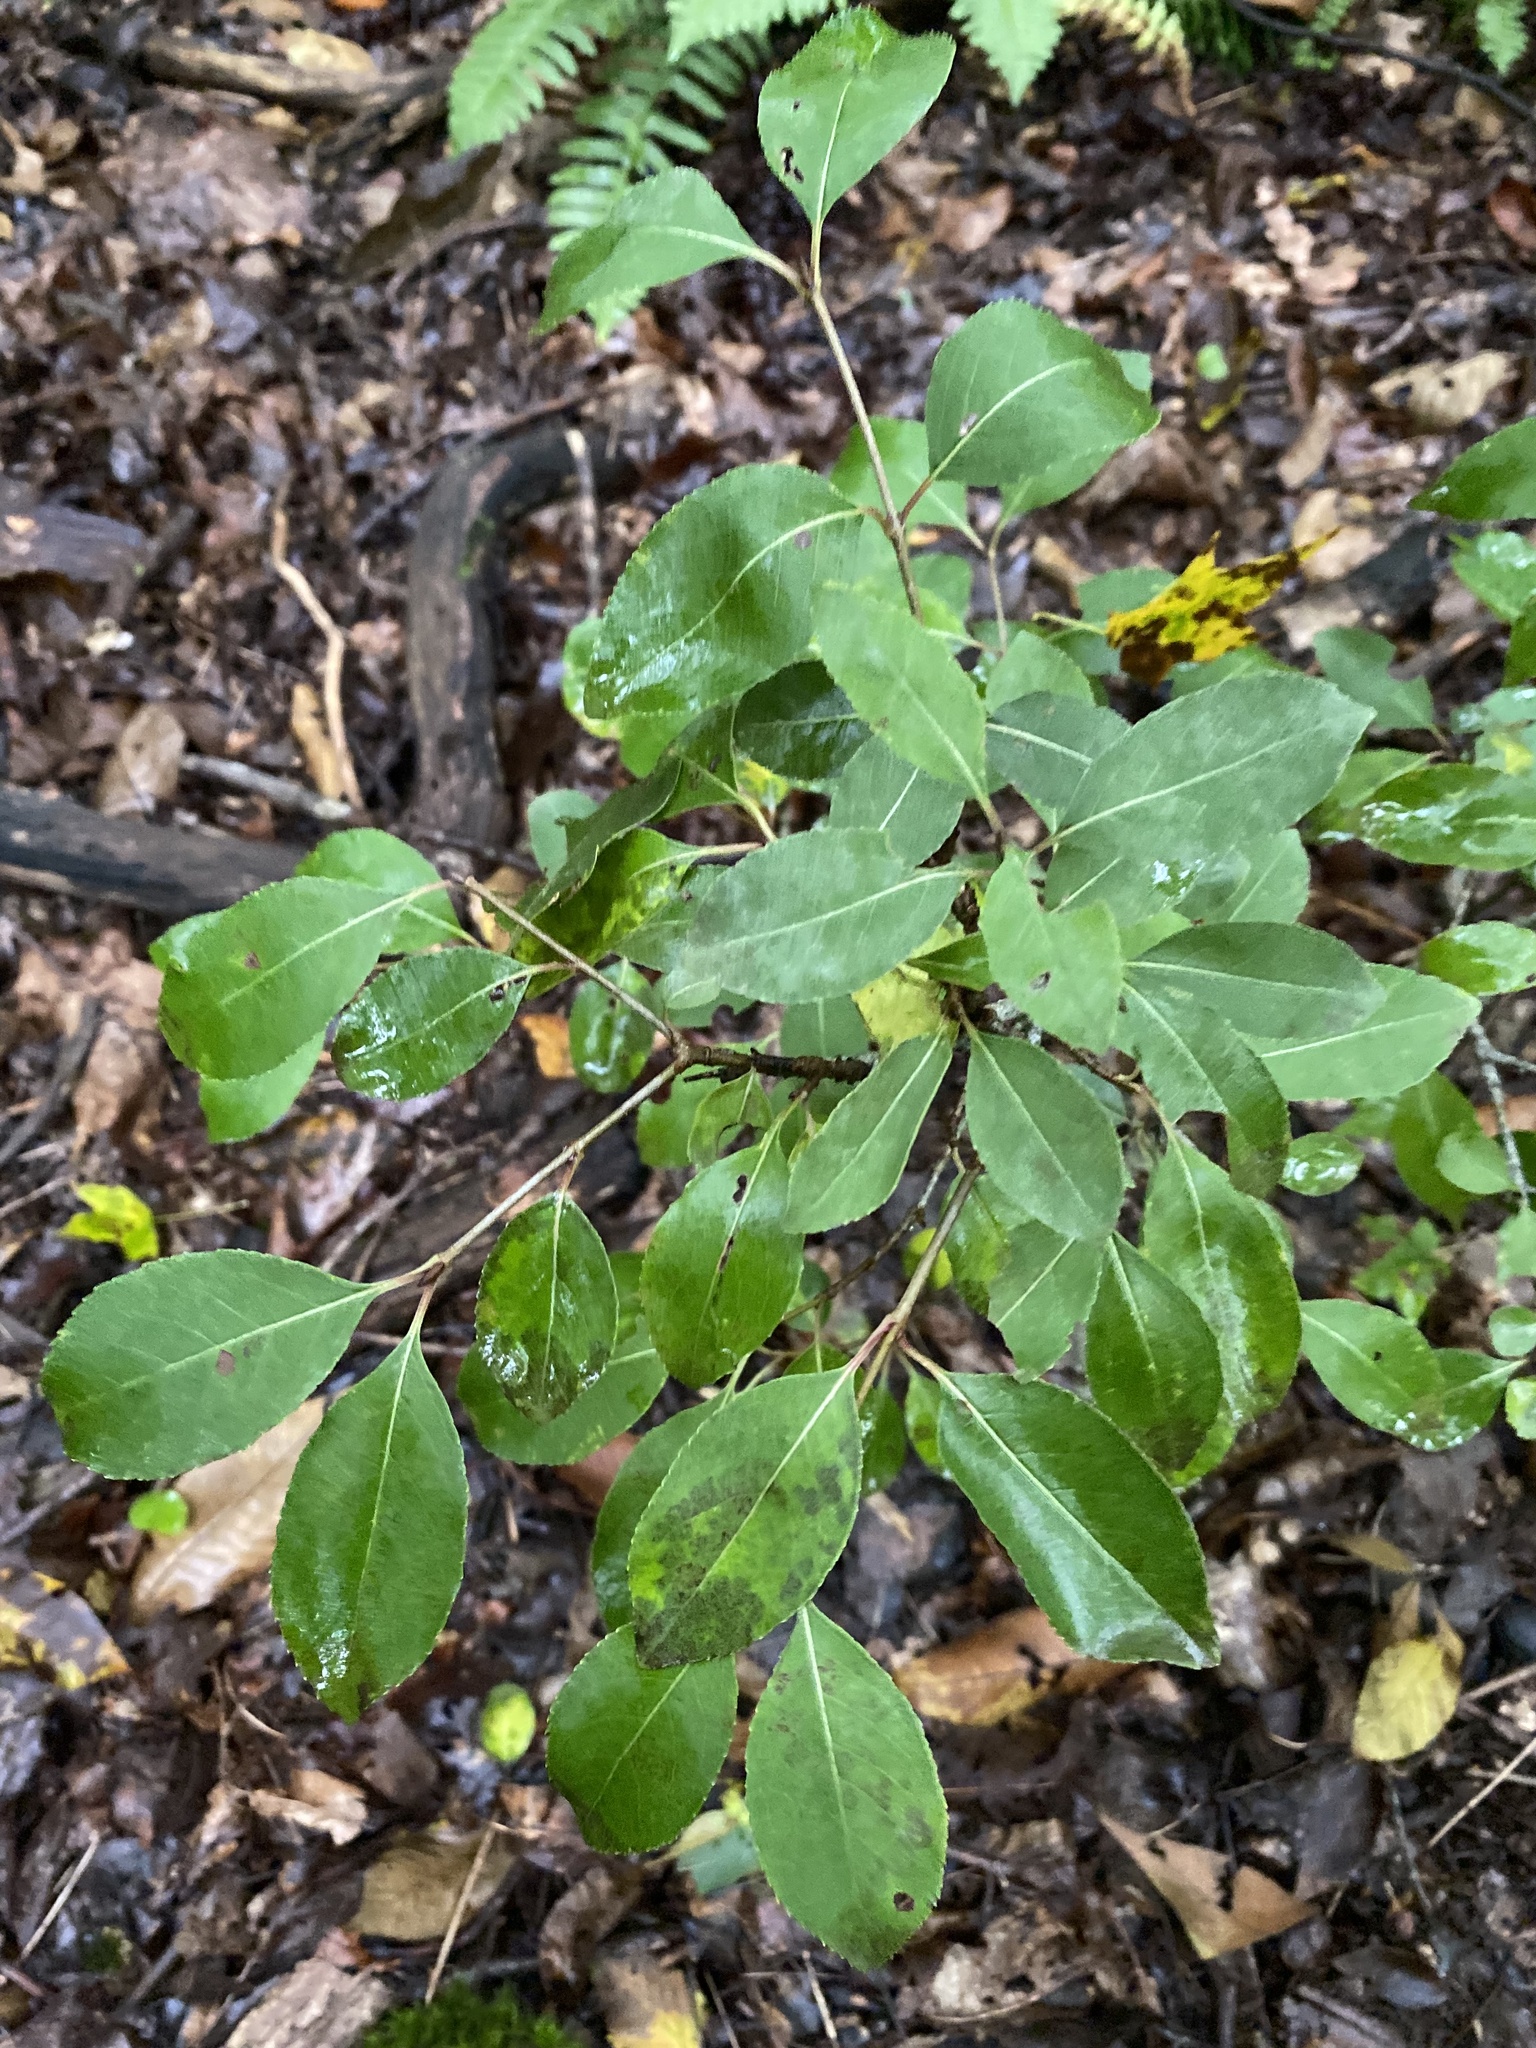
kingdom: Plantae
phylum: Tracheophyta
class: Magnoliopsida
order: Dipsacales
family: Viburnaceae
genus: Viburnum
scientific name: Viburnum prunifolium
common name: Black haw
